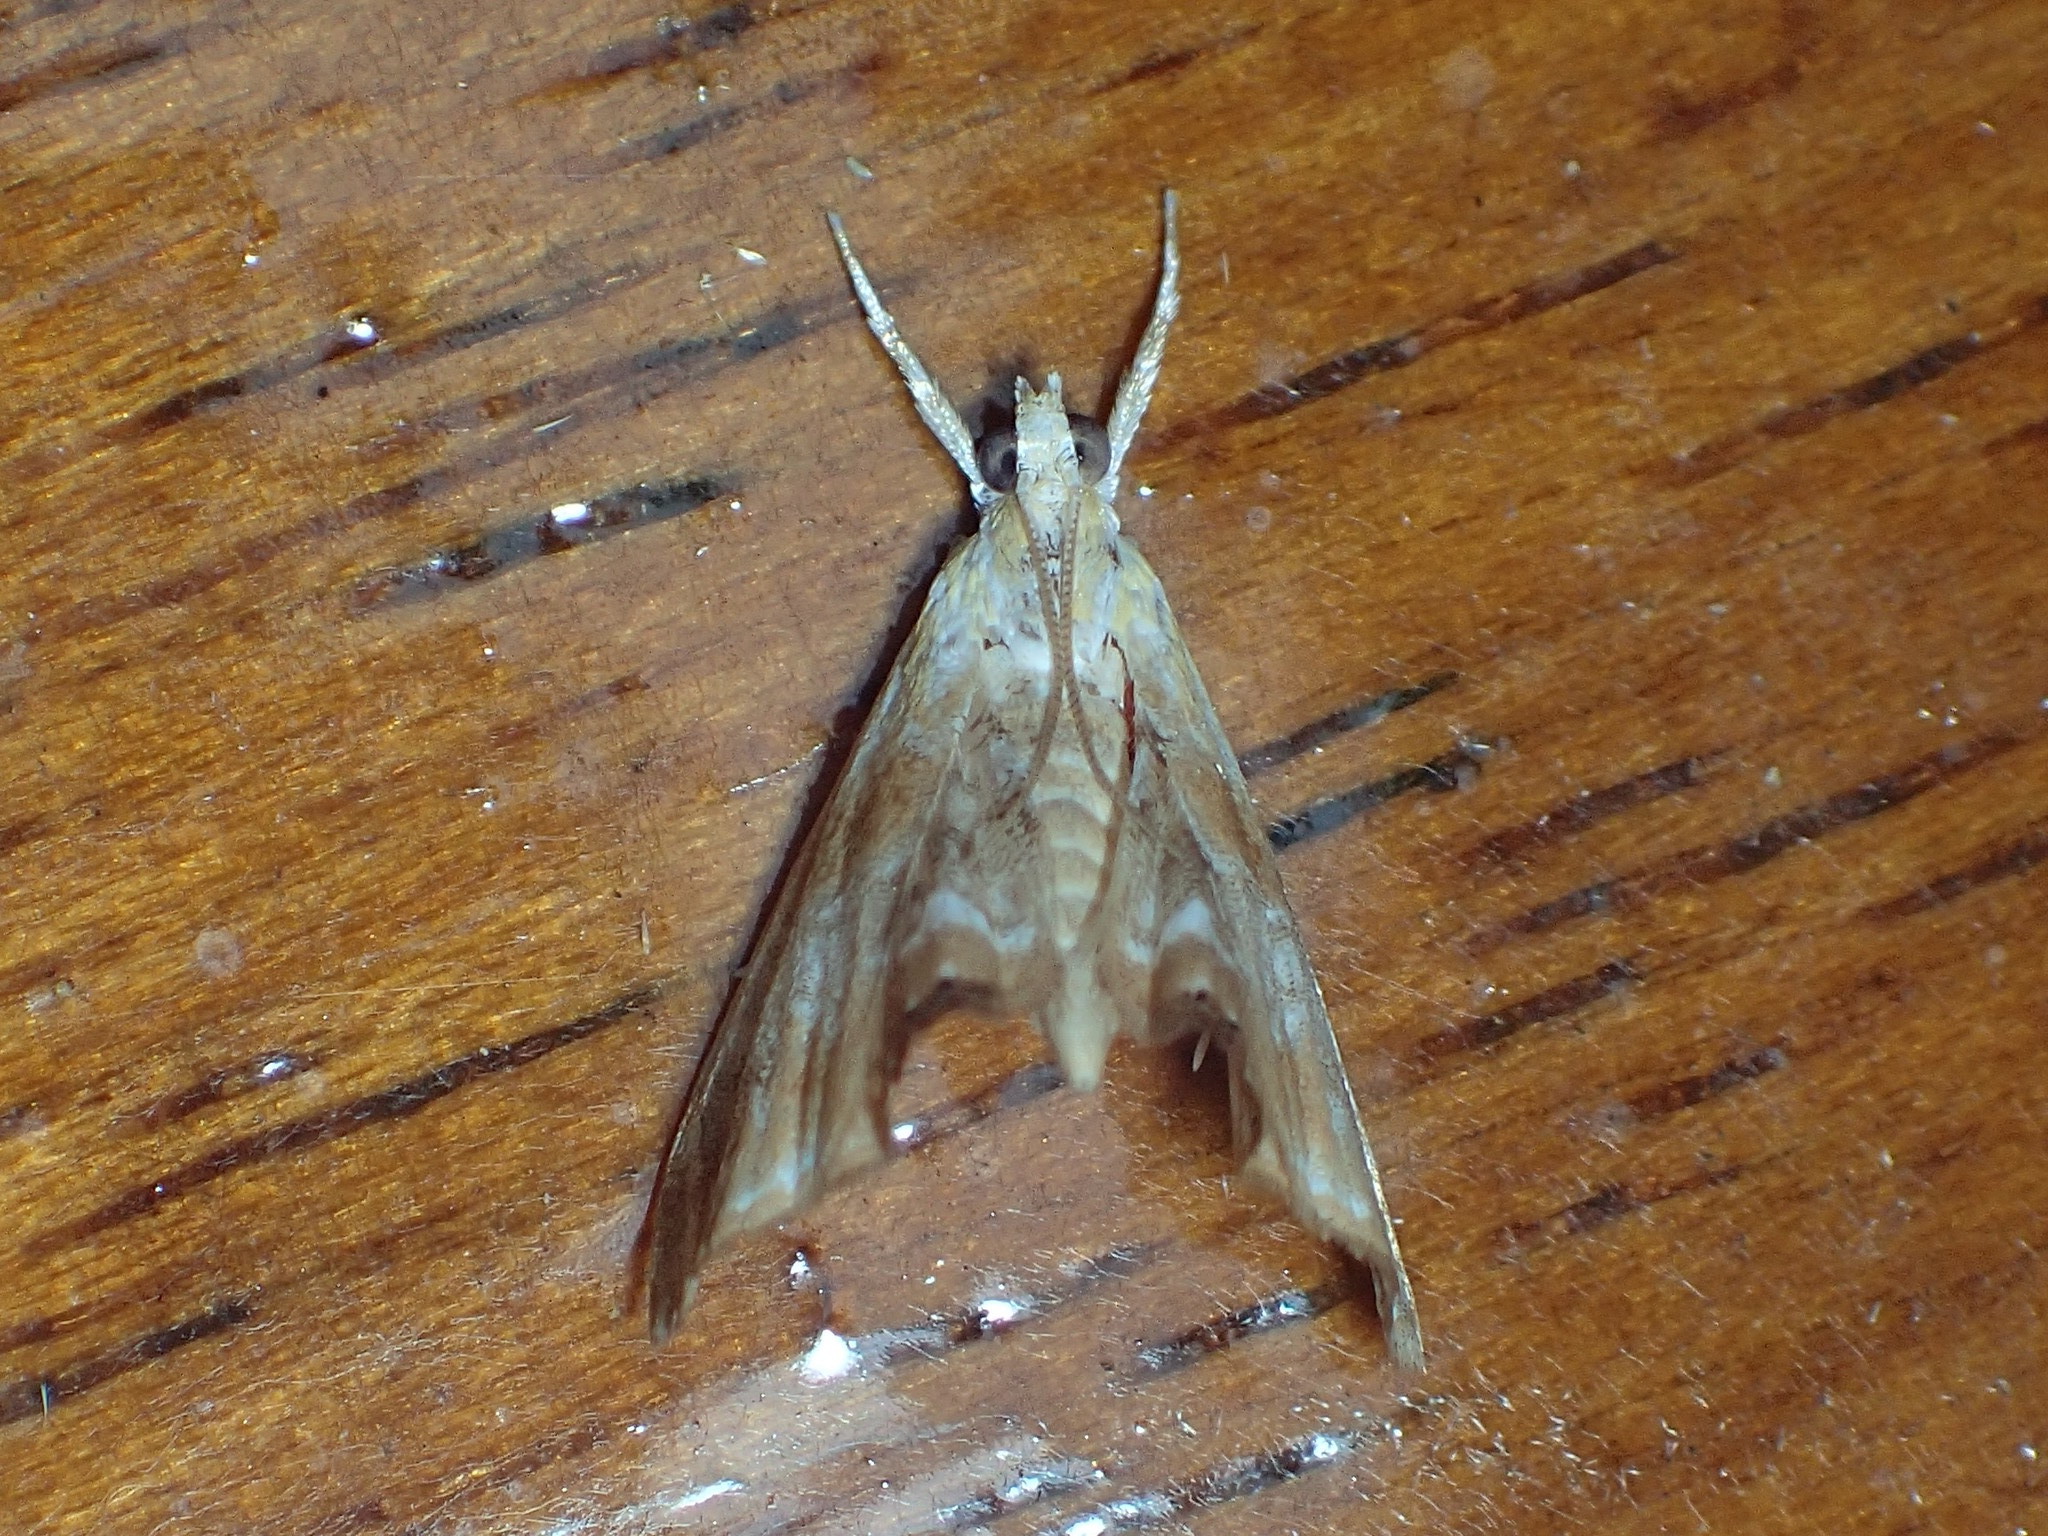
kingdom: Animalia
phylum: Arthropoda
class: Insecta
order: Lepidoptera
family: Crambidae
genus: Dicymolomia
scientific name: Dicymolomia julianalis
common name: Julia's dicymolomia moth
